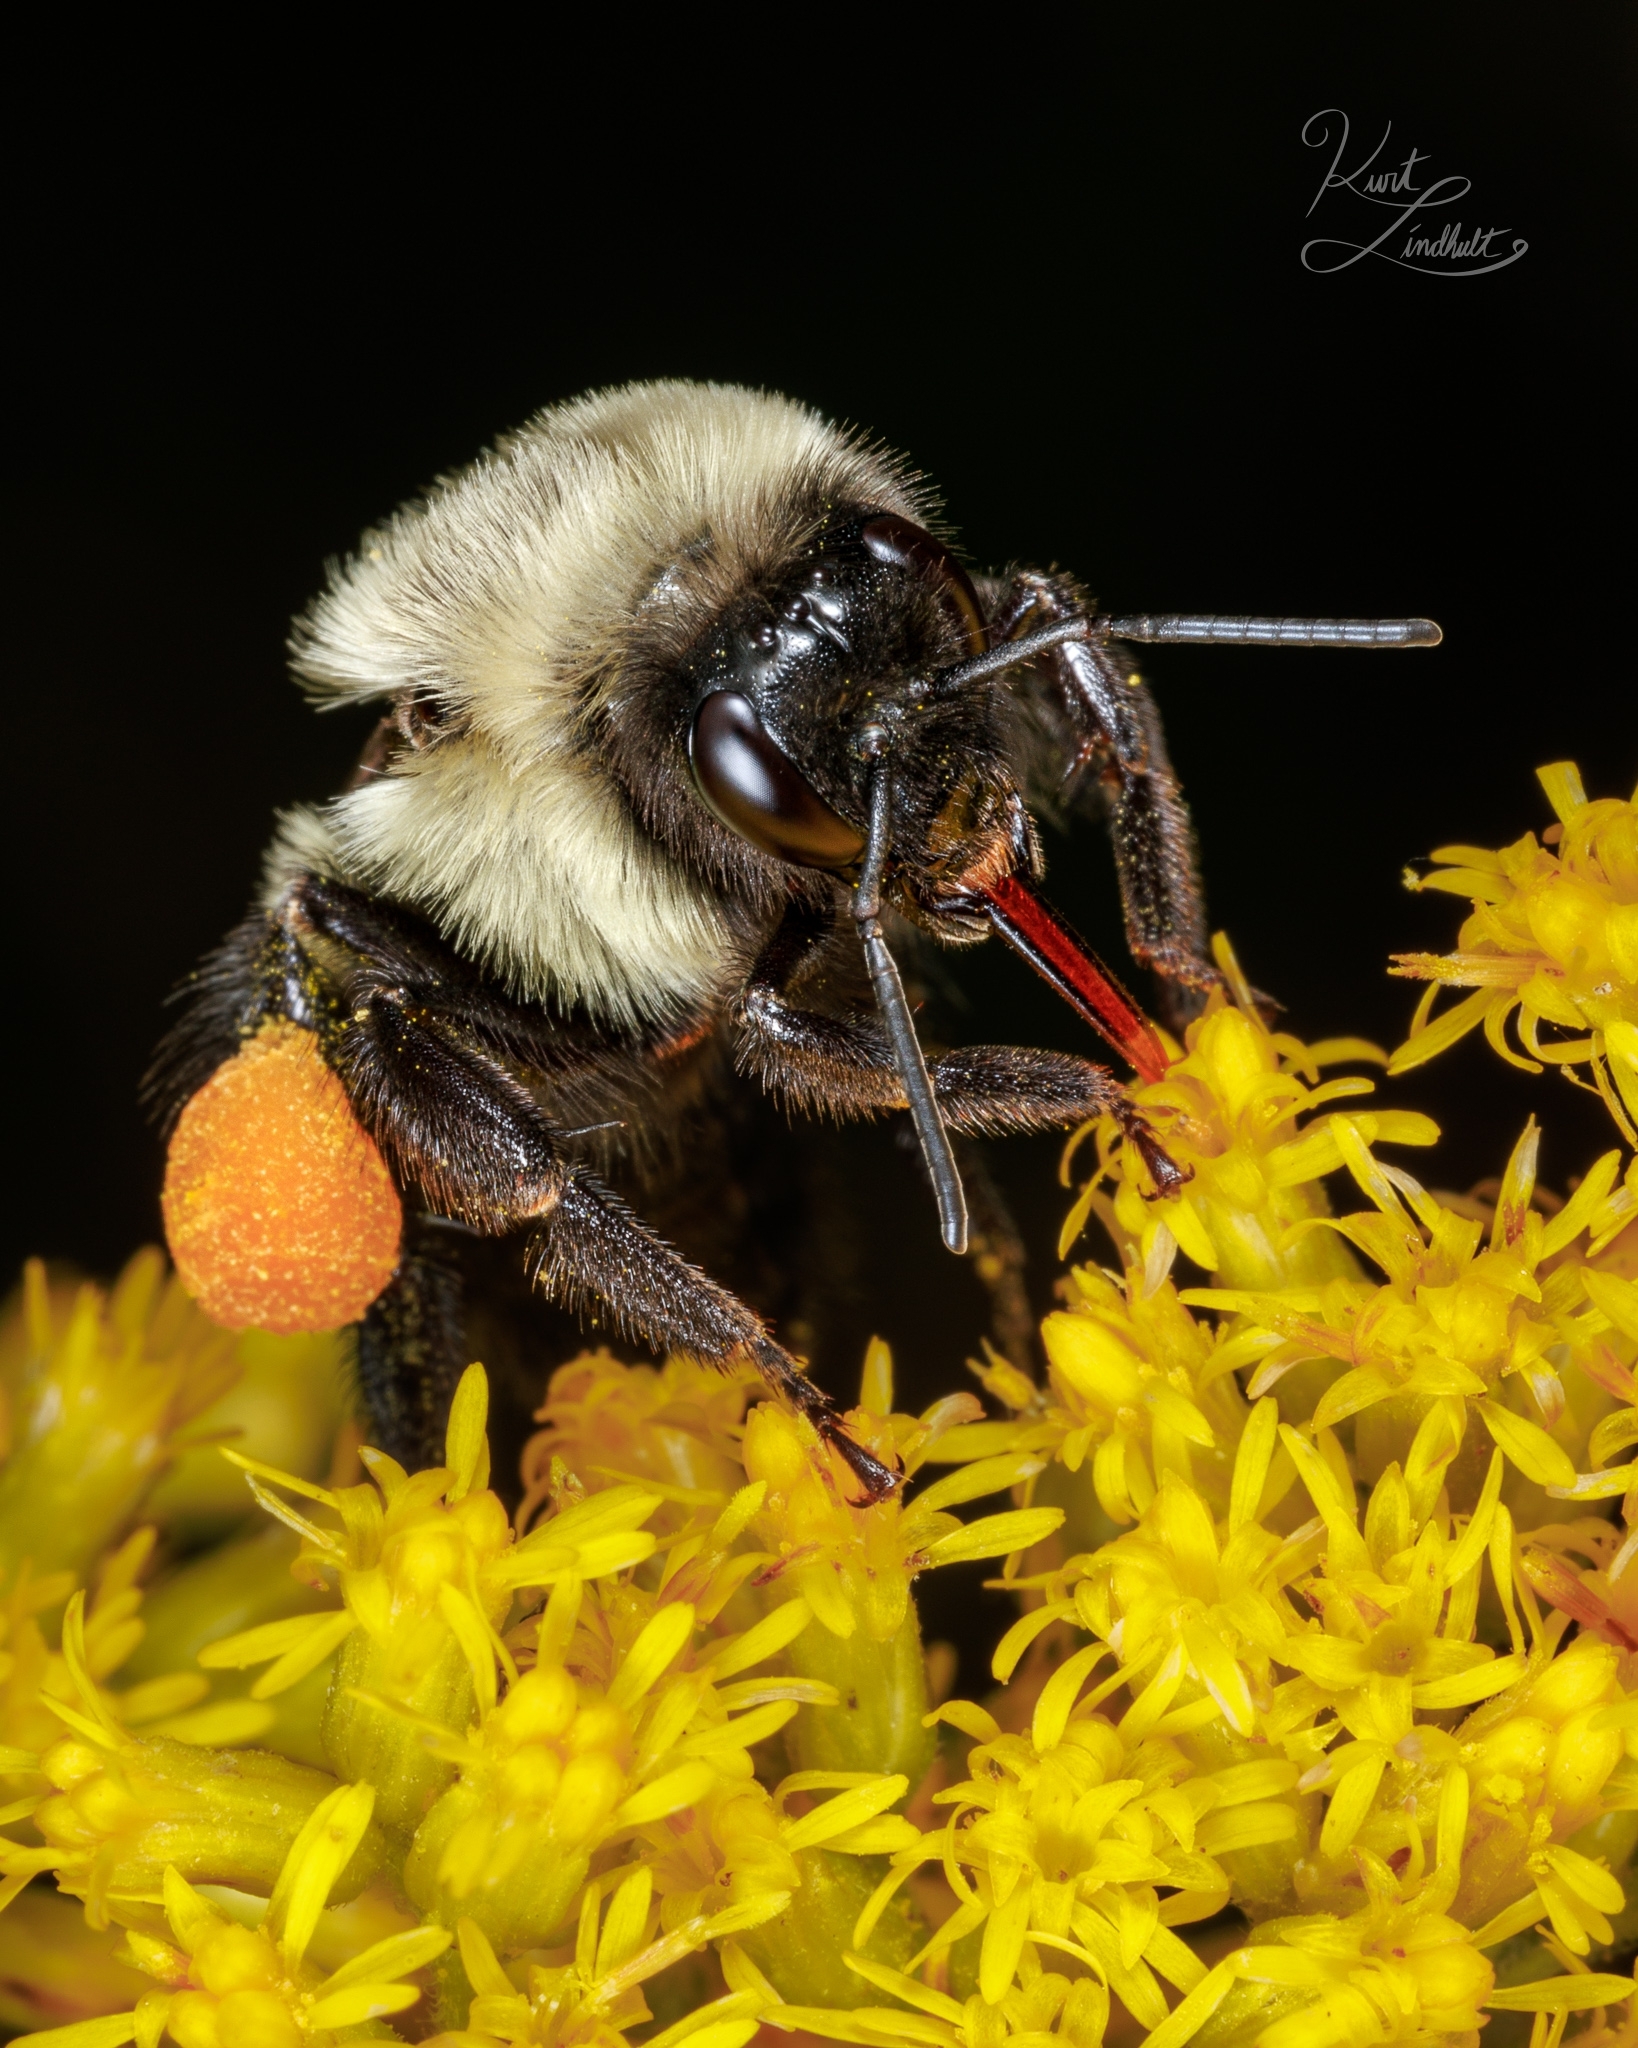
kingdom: Animalia
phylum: Arthropoda
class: Insecta
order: Hymenoptera
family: Apidae
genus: Bombus
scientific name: Bombus impatiens
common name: Common eastern bumble bee
